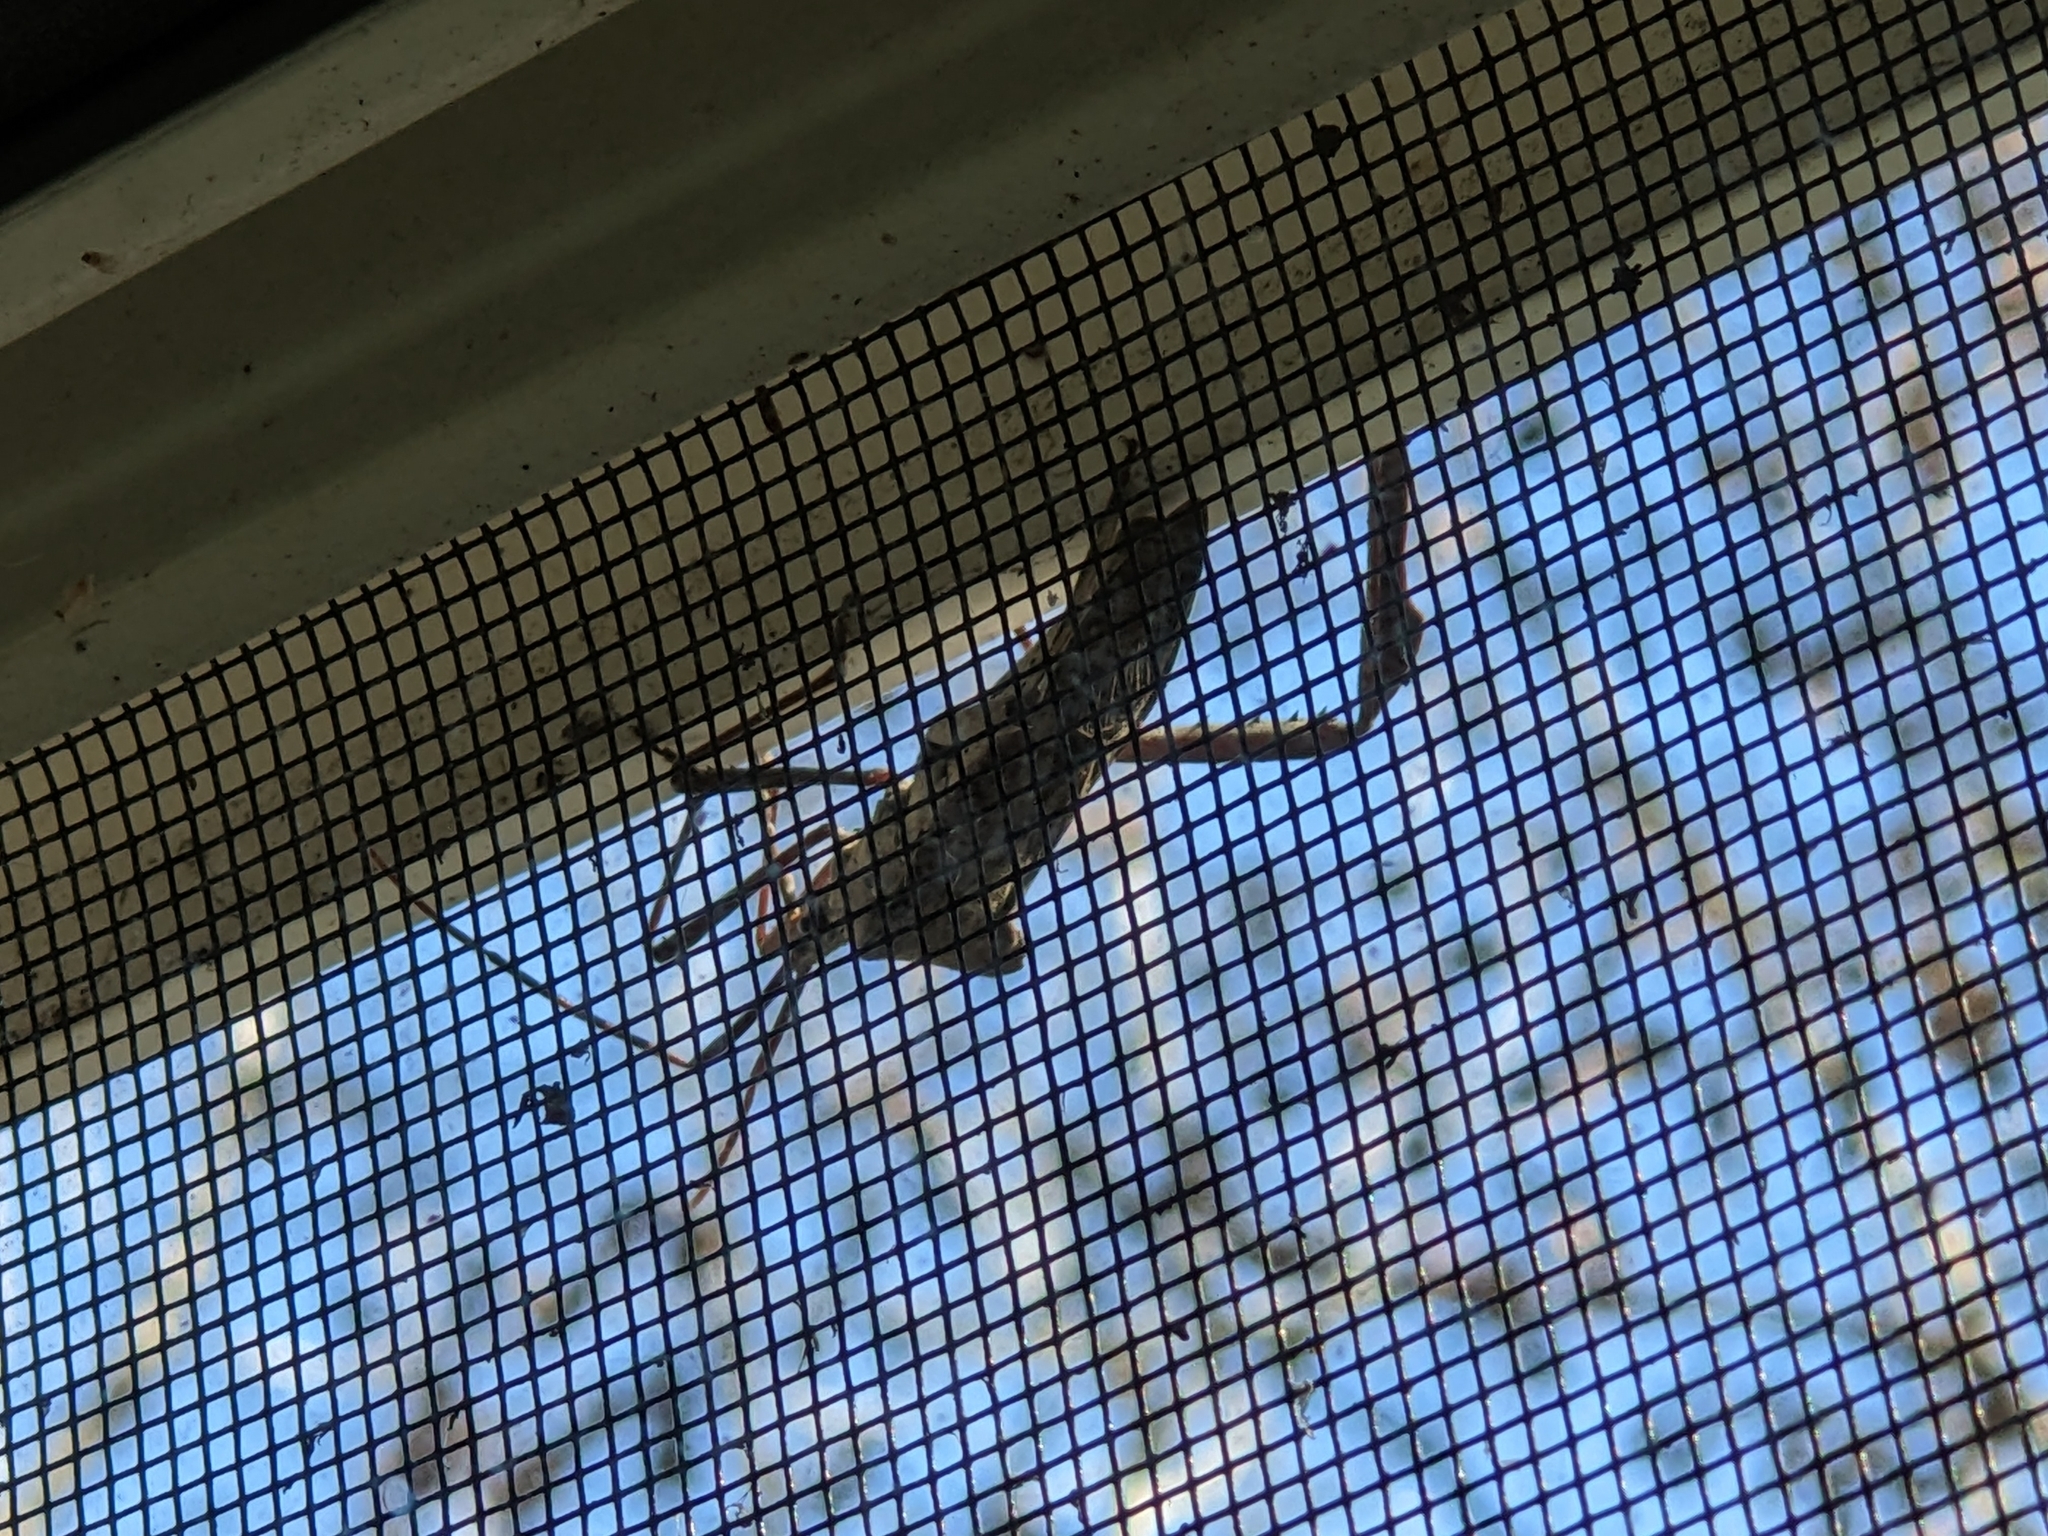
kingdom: Animalia
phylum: Arthropoda
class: Insecta
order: Hemiptera
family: Coreidae
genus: Acanthocephala
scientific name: Acanthocephala declivis
